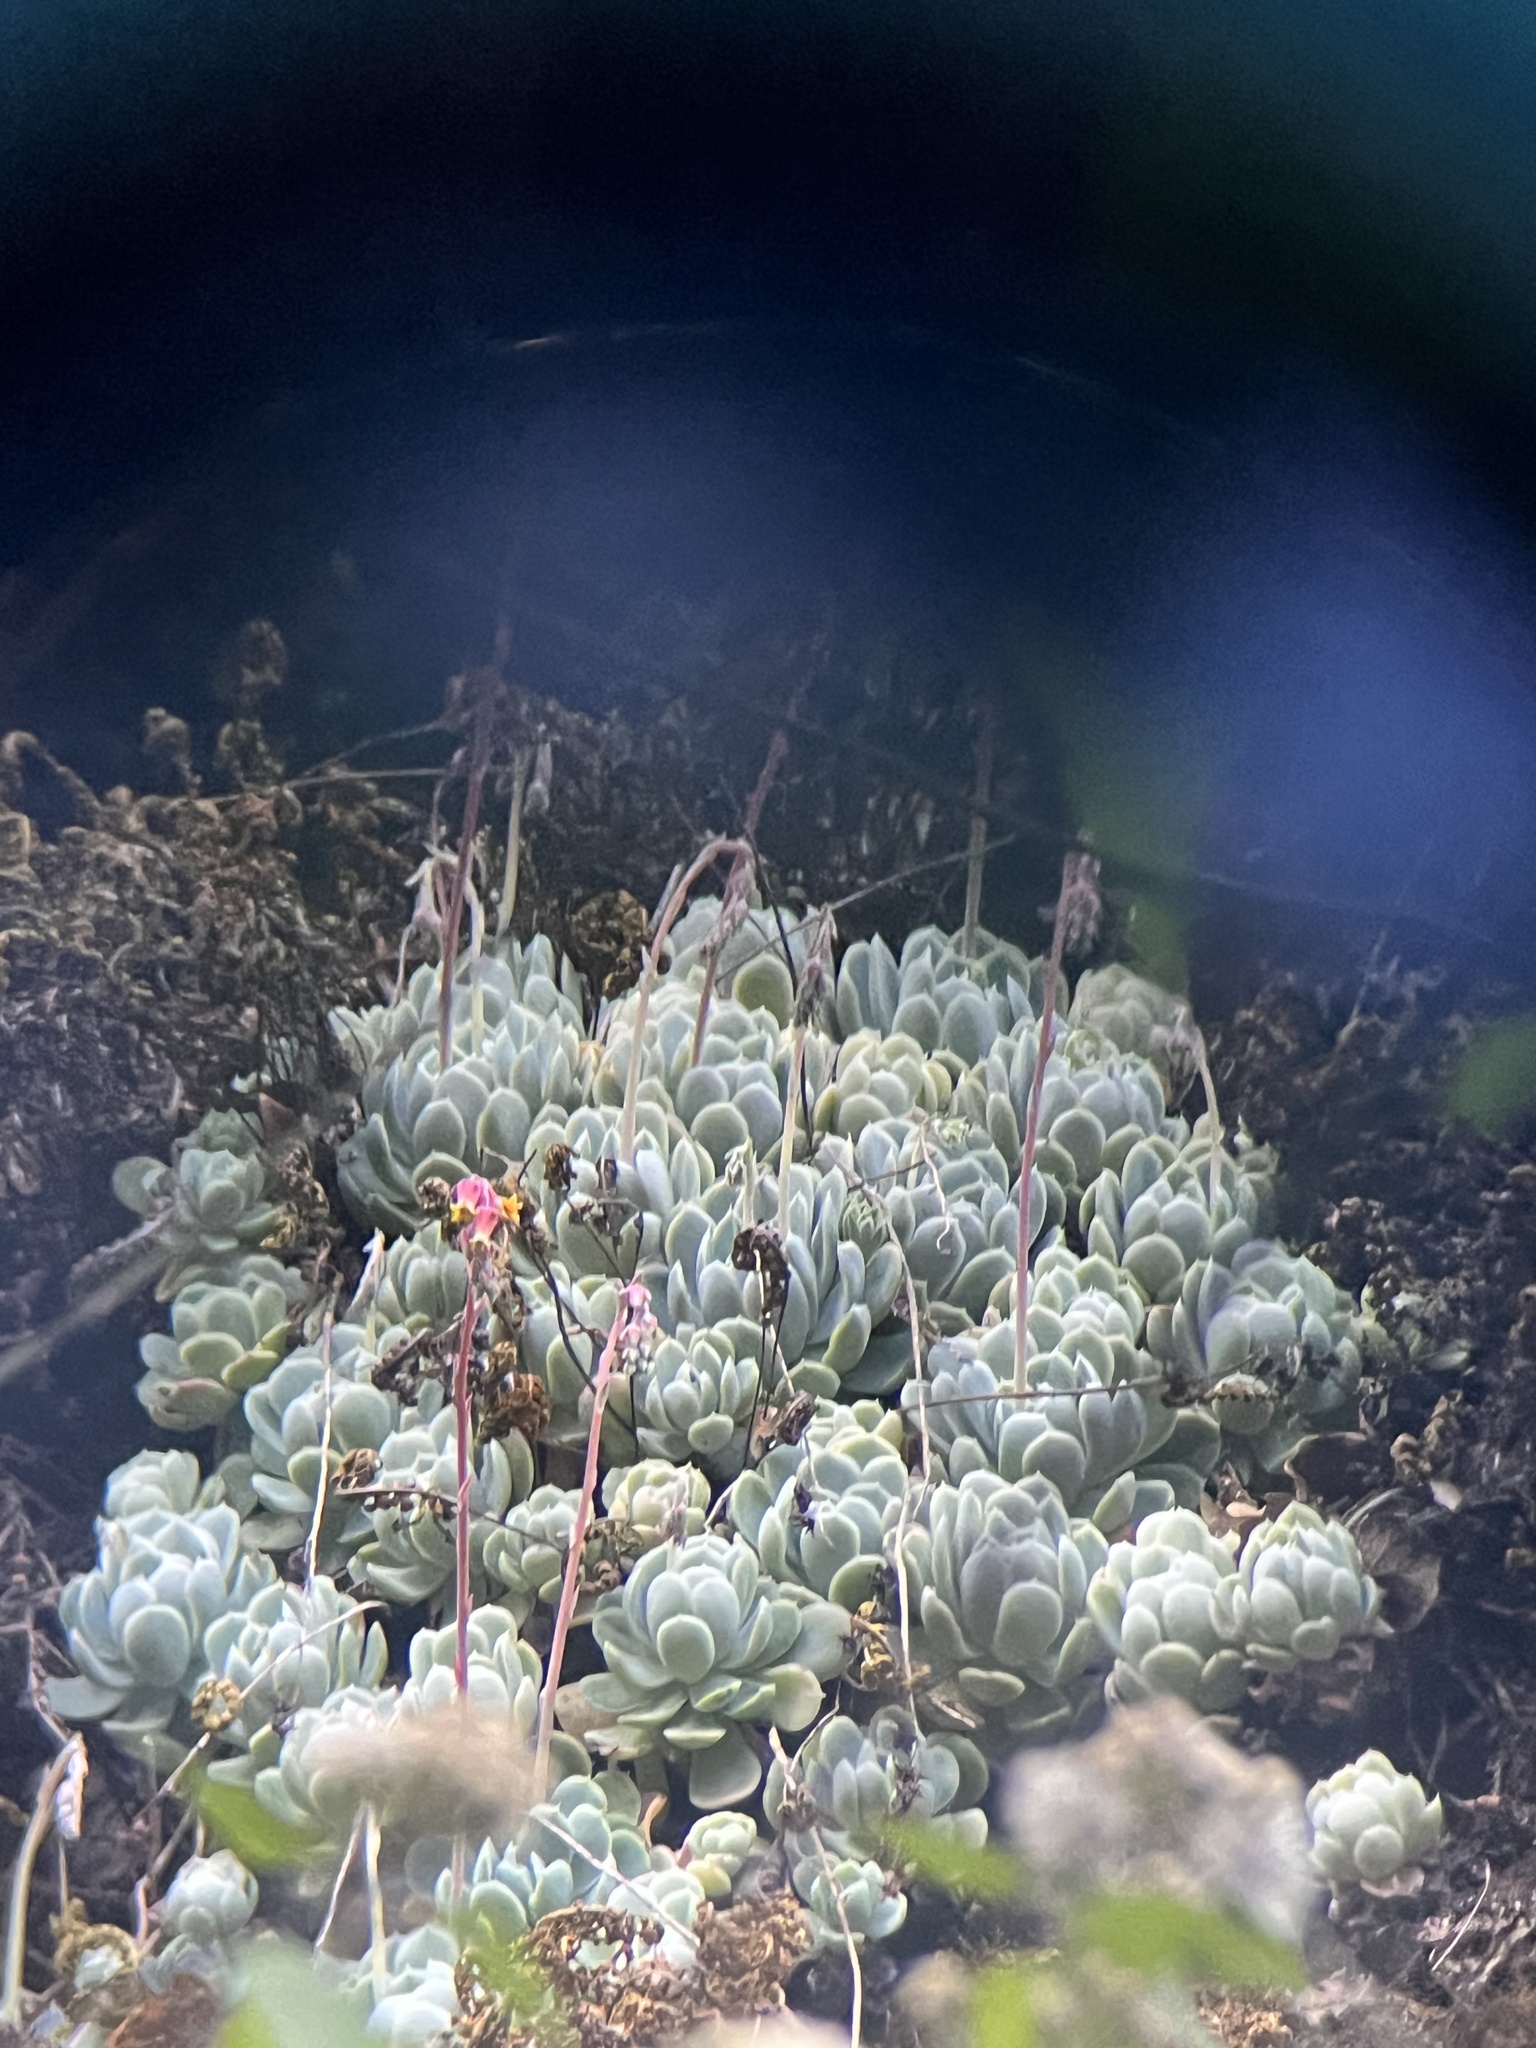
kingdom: Plantae
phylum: Tracheophyta
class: Magnoliopsida
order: Saxifragales
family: Crassulaceae
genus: Echeveria
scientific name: Echeveria elegans
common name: Pearl echeveria
